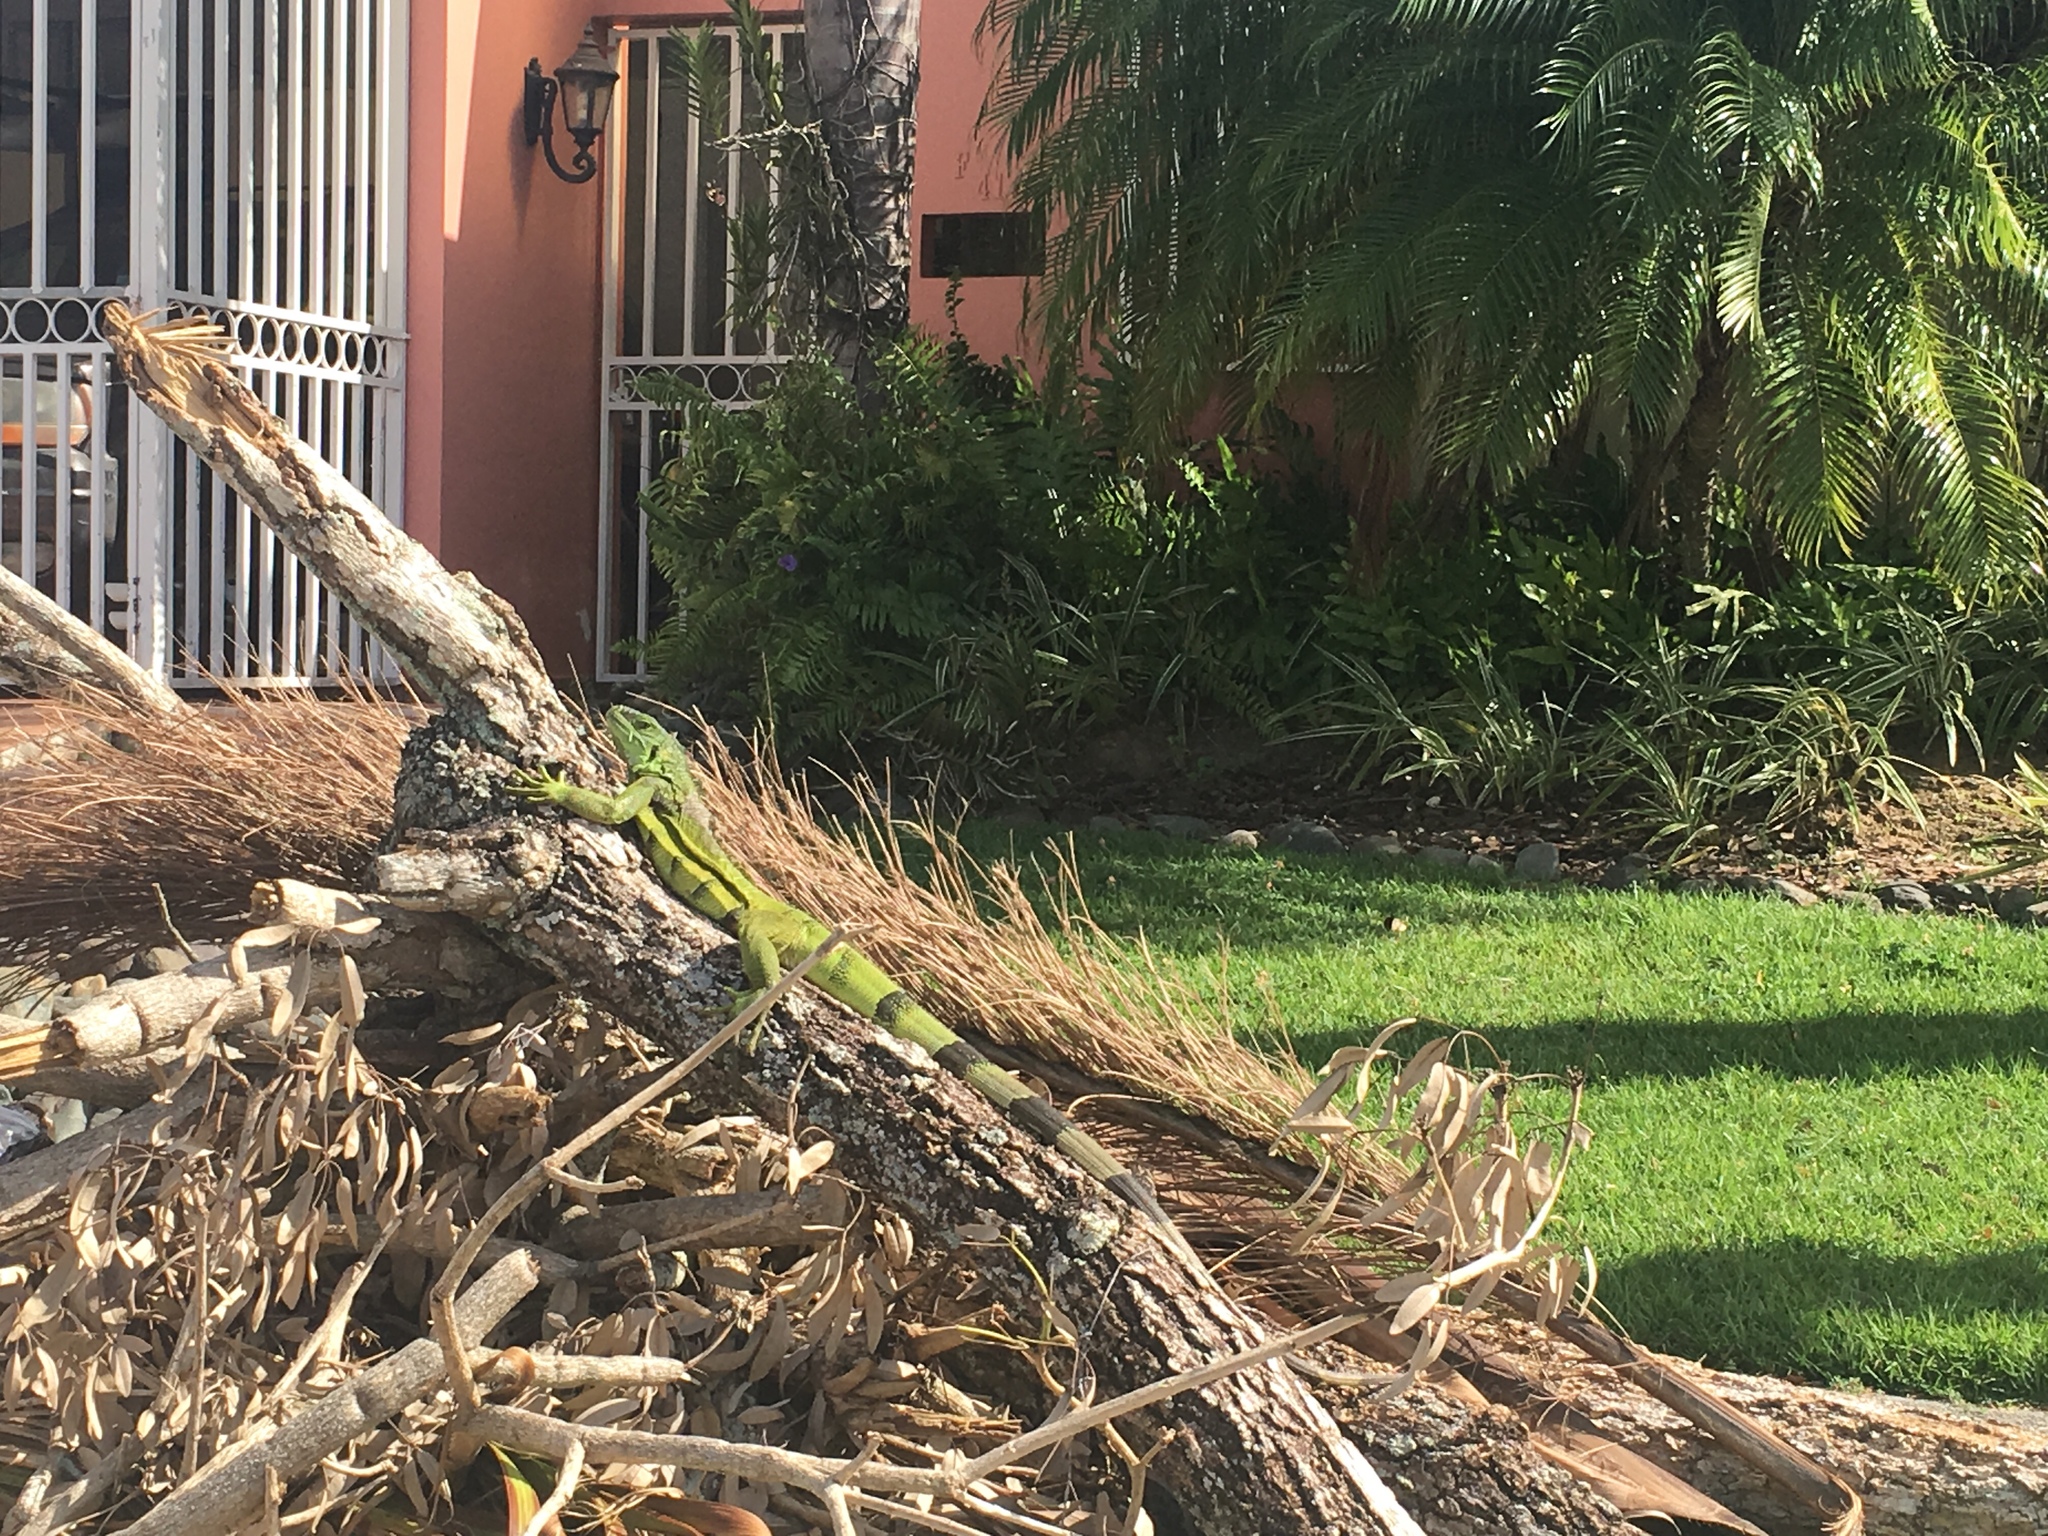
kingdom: Animalia
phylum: Chordata
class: Squamata
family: Iguanidae
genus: Iguana
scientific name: Iguana iguana
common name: Green iguana
